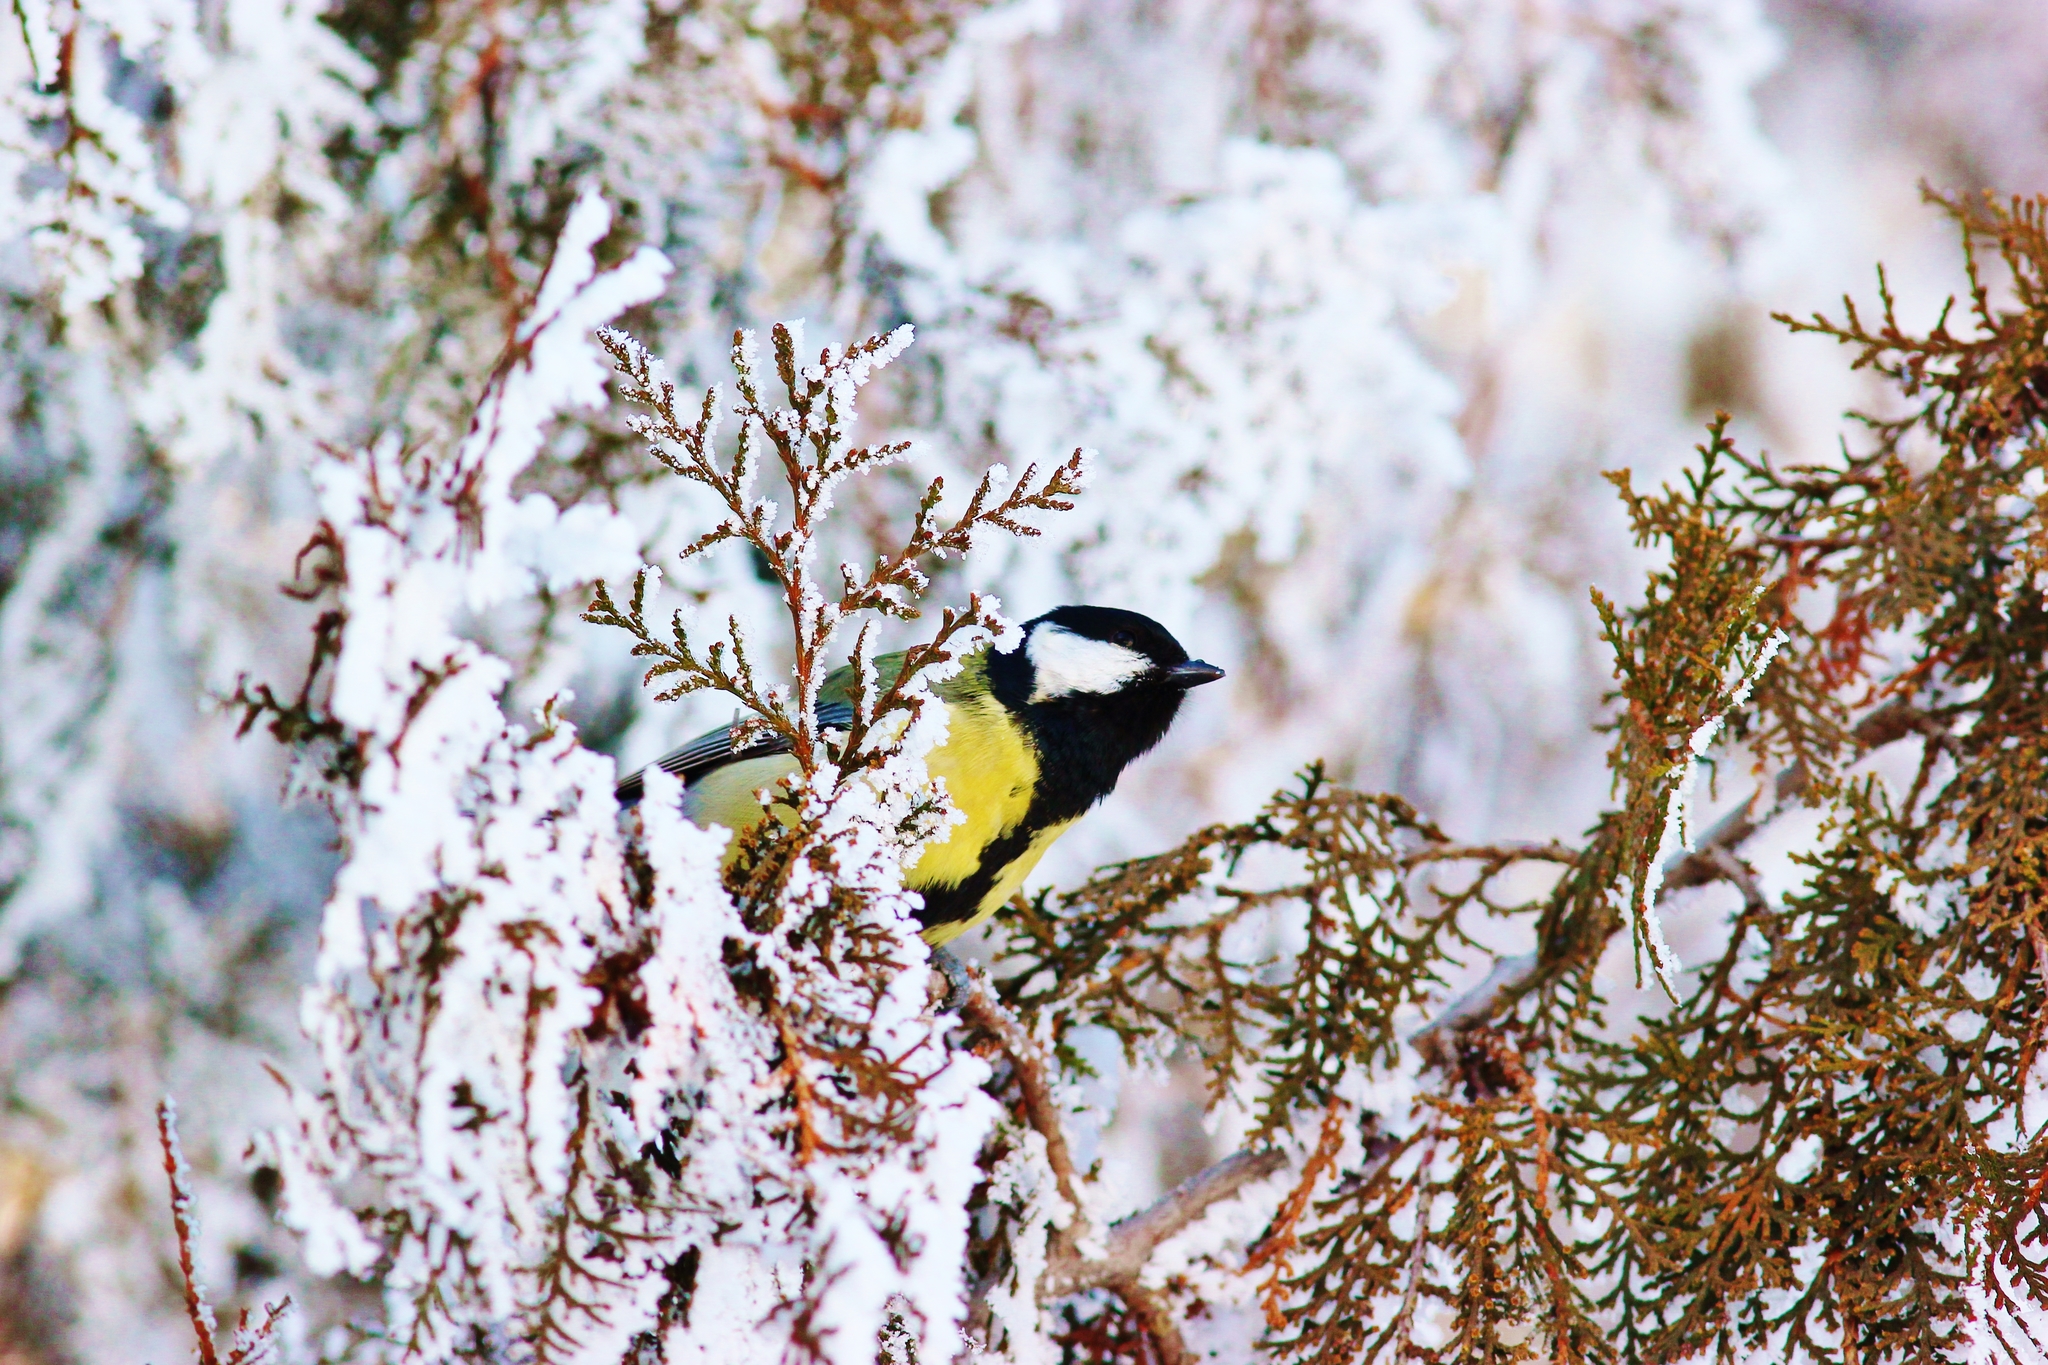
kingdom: Animalia
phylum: Chordata
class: Aves
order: Passeriformes
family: Paridae
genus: Parus
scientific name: Parus major
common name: Great tit
